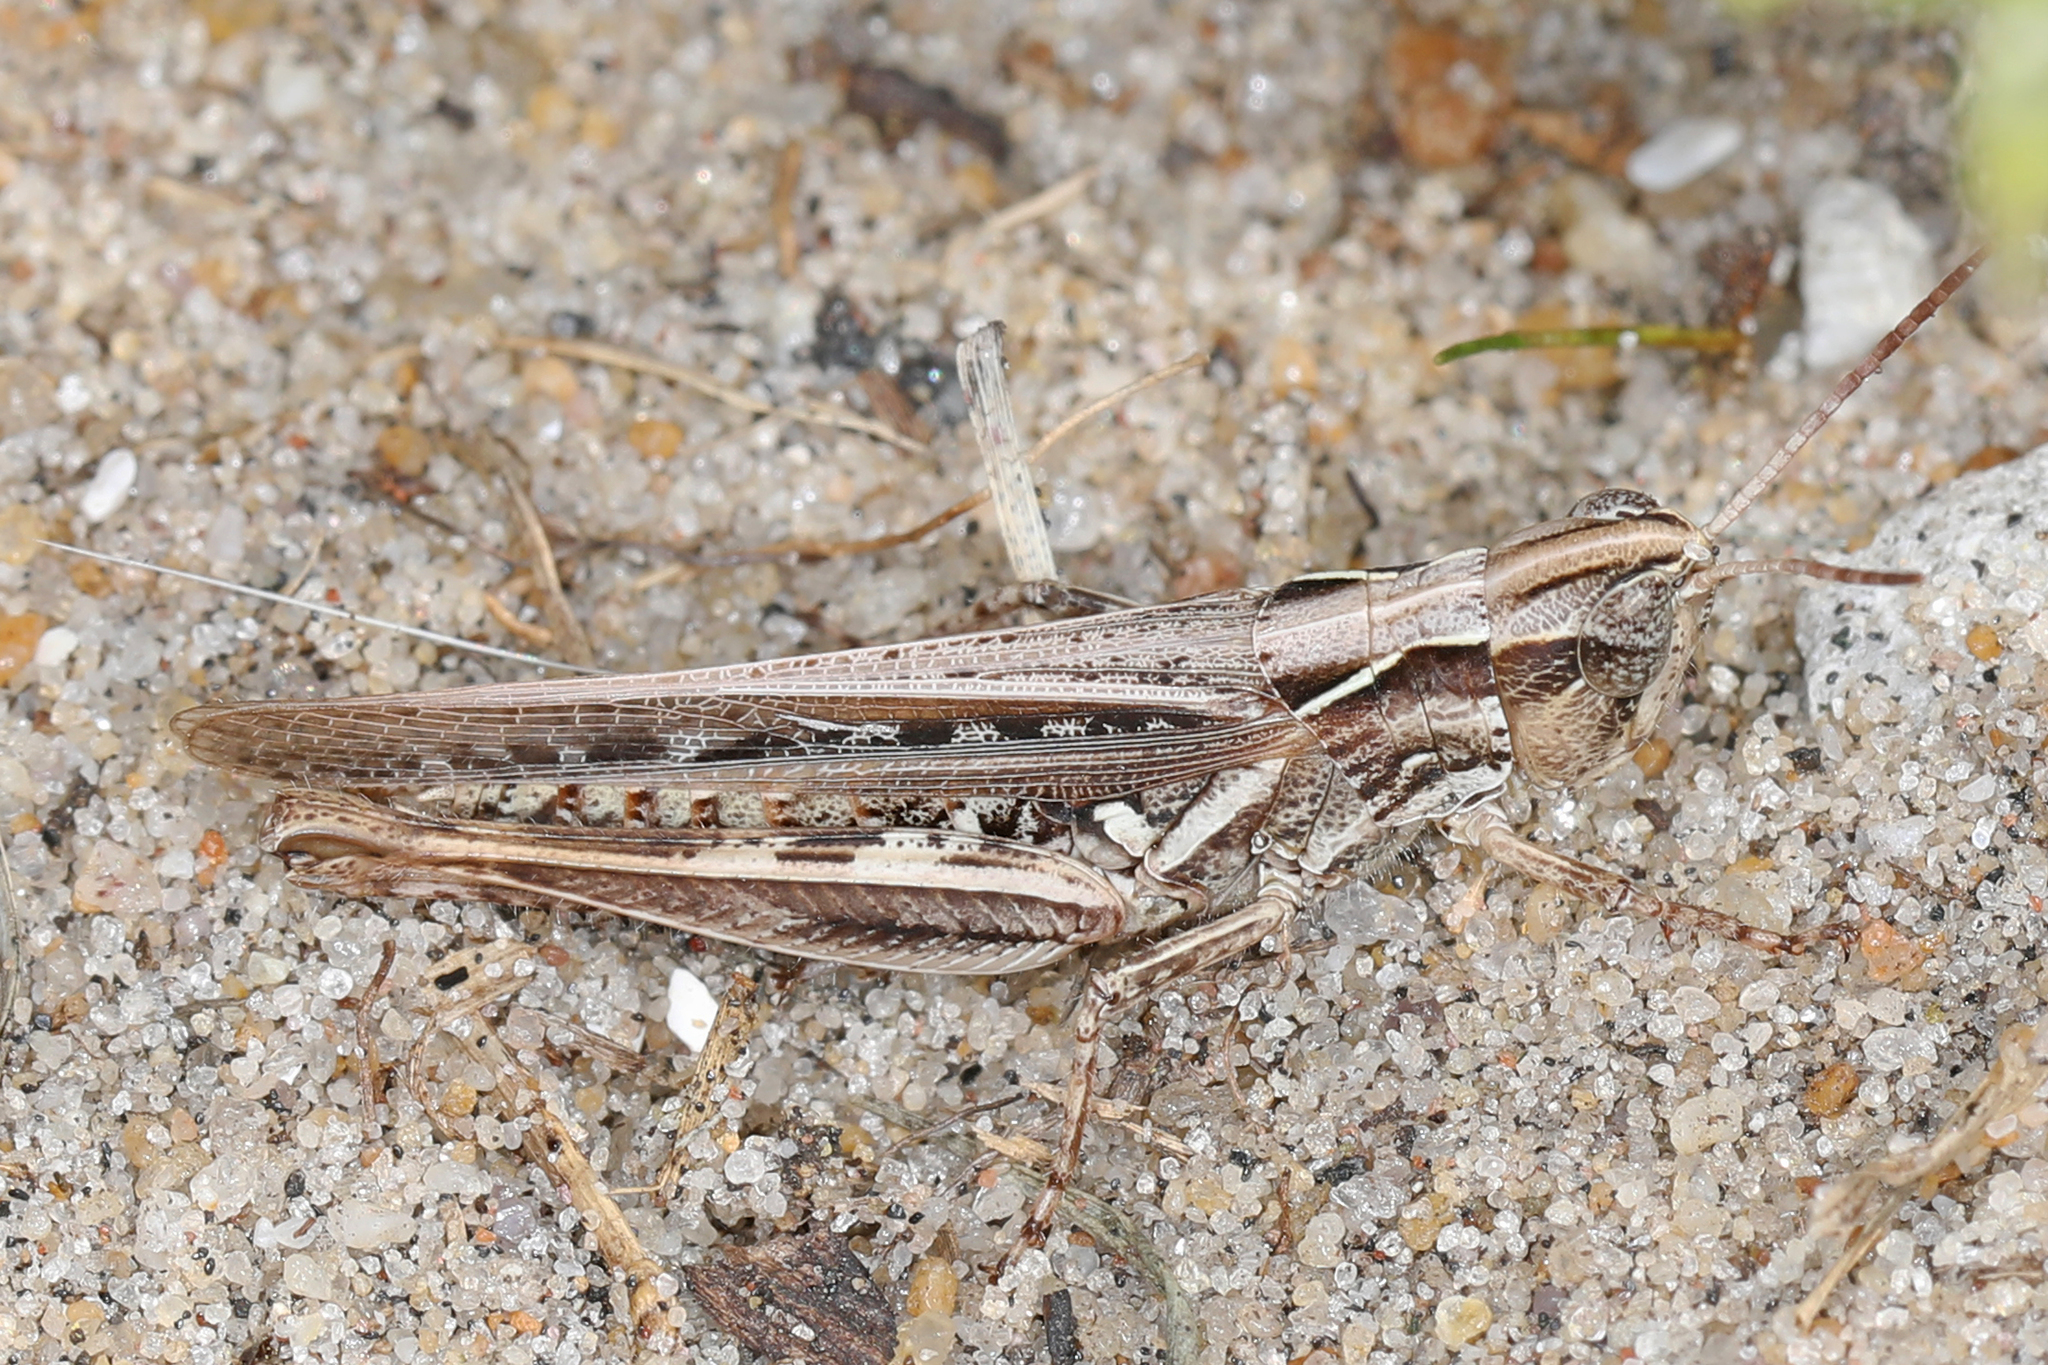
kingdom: Animalia
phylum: Arthropoda
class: Insecta
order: Orthoptera
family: Acrididae
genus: Orphulella
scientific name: Orphulella pelidna
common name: Spotted-wing grasshopper
